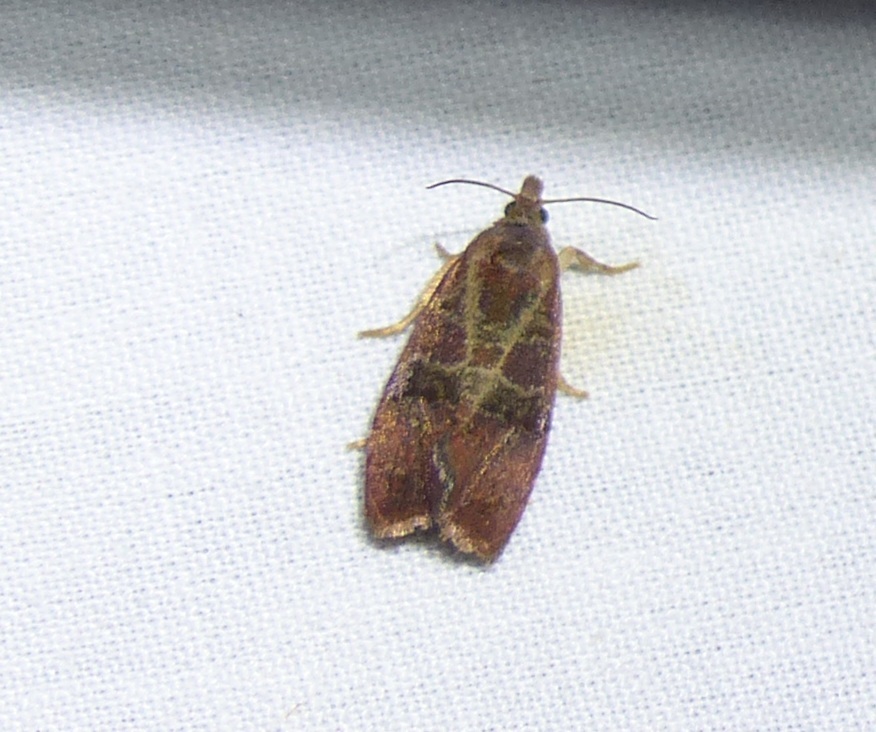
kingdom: Animalia
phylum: Arthropoda
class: Insecta
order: Lepidoptera
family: Tortricidae
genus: Evora
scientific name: Evora hemidesma
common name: Spirea leaftier moth
